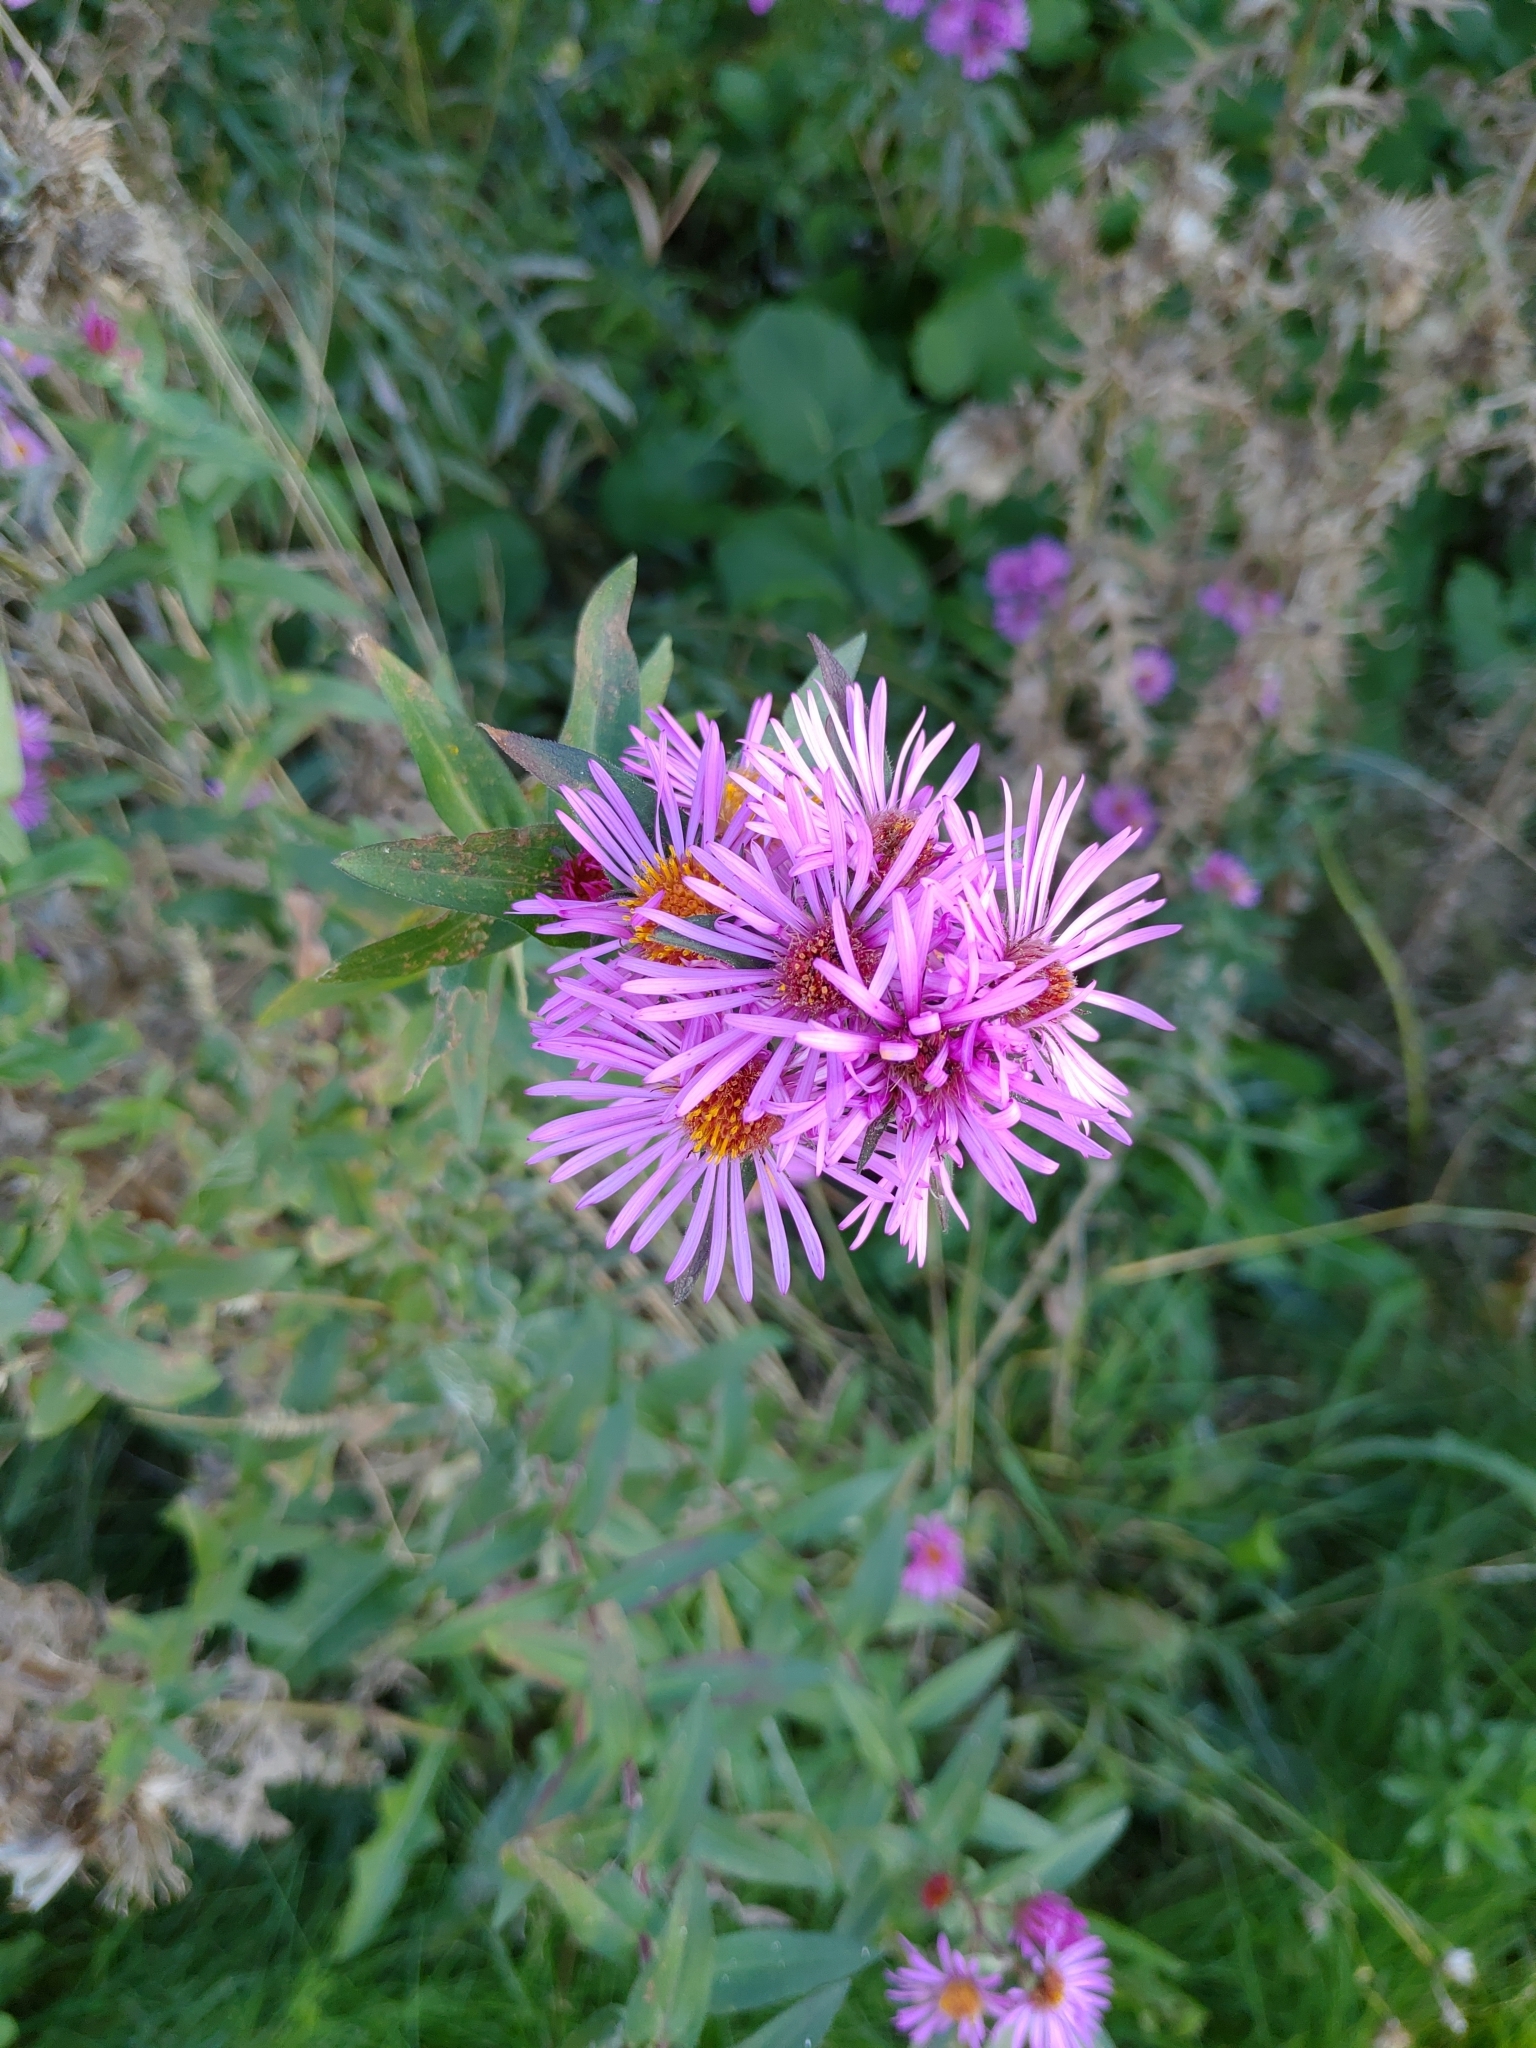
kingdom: Plantae
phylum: Tracheophyta
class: Magnoliopsida
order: Asterales
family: Asteraceae
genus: Symphyotrichum
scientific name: Symphyotrichum novae-angliae
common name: Michaelmas daisy
